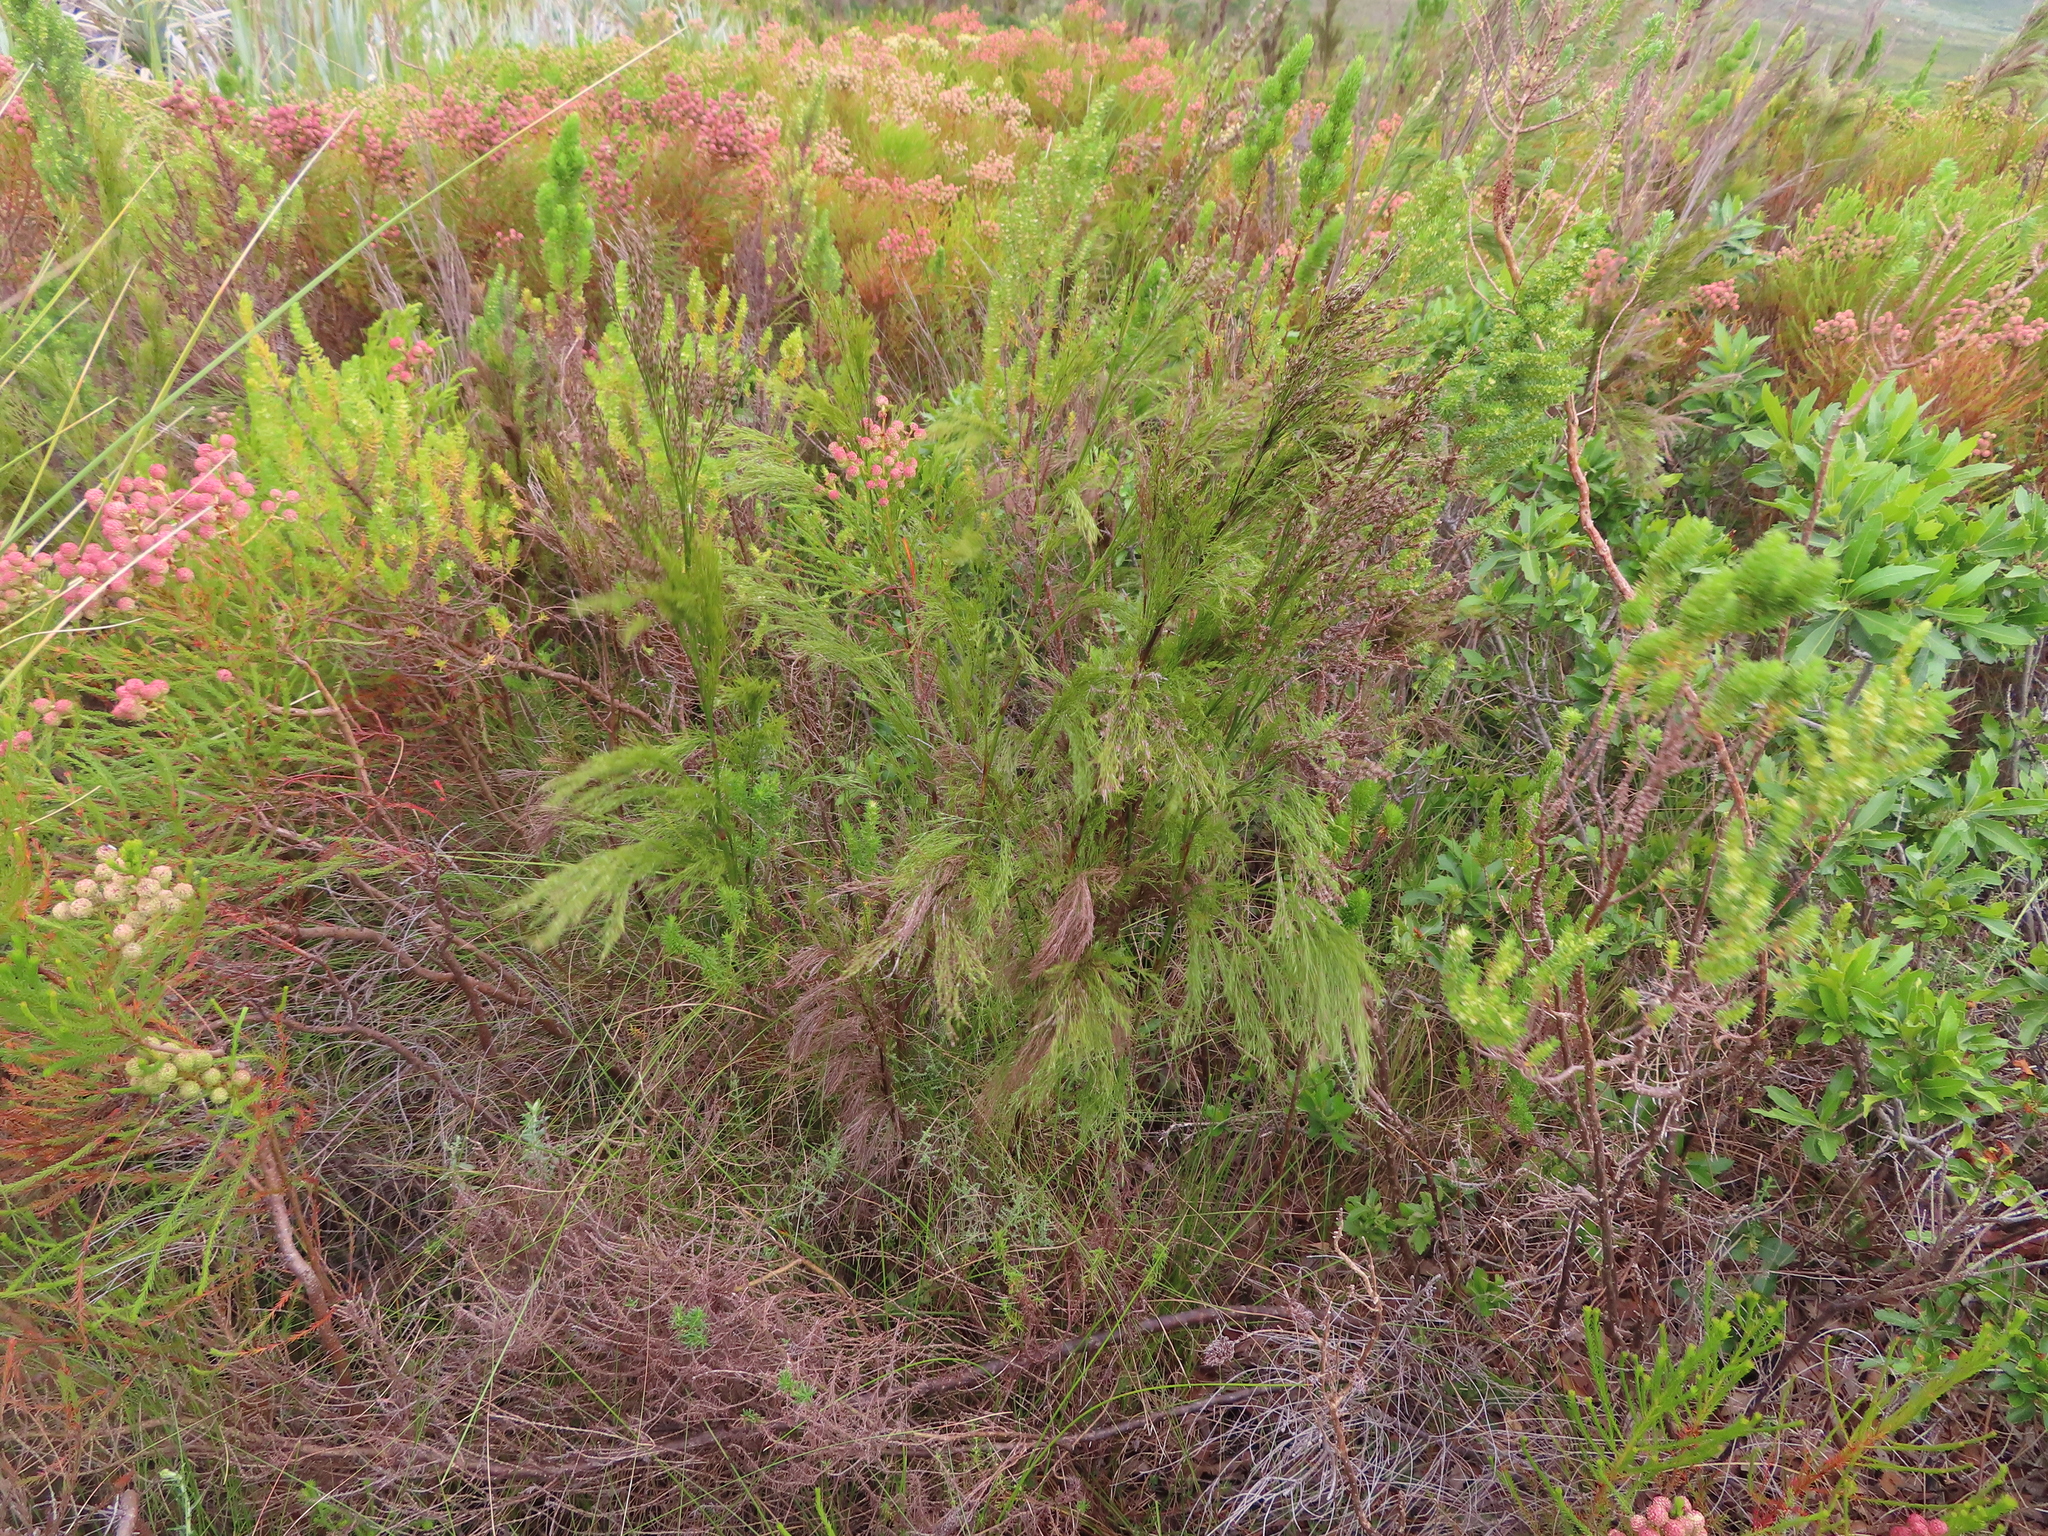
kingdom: Plantae
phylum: Tracheophyta
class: Liliopsida
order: Poales
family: Restionaceae
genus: Restio
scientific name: Restio subverticillatus
